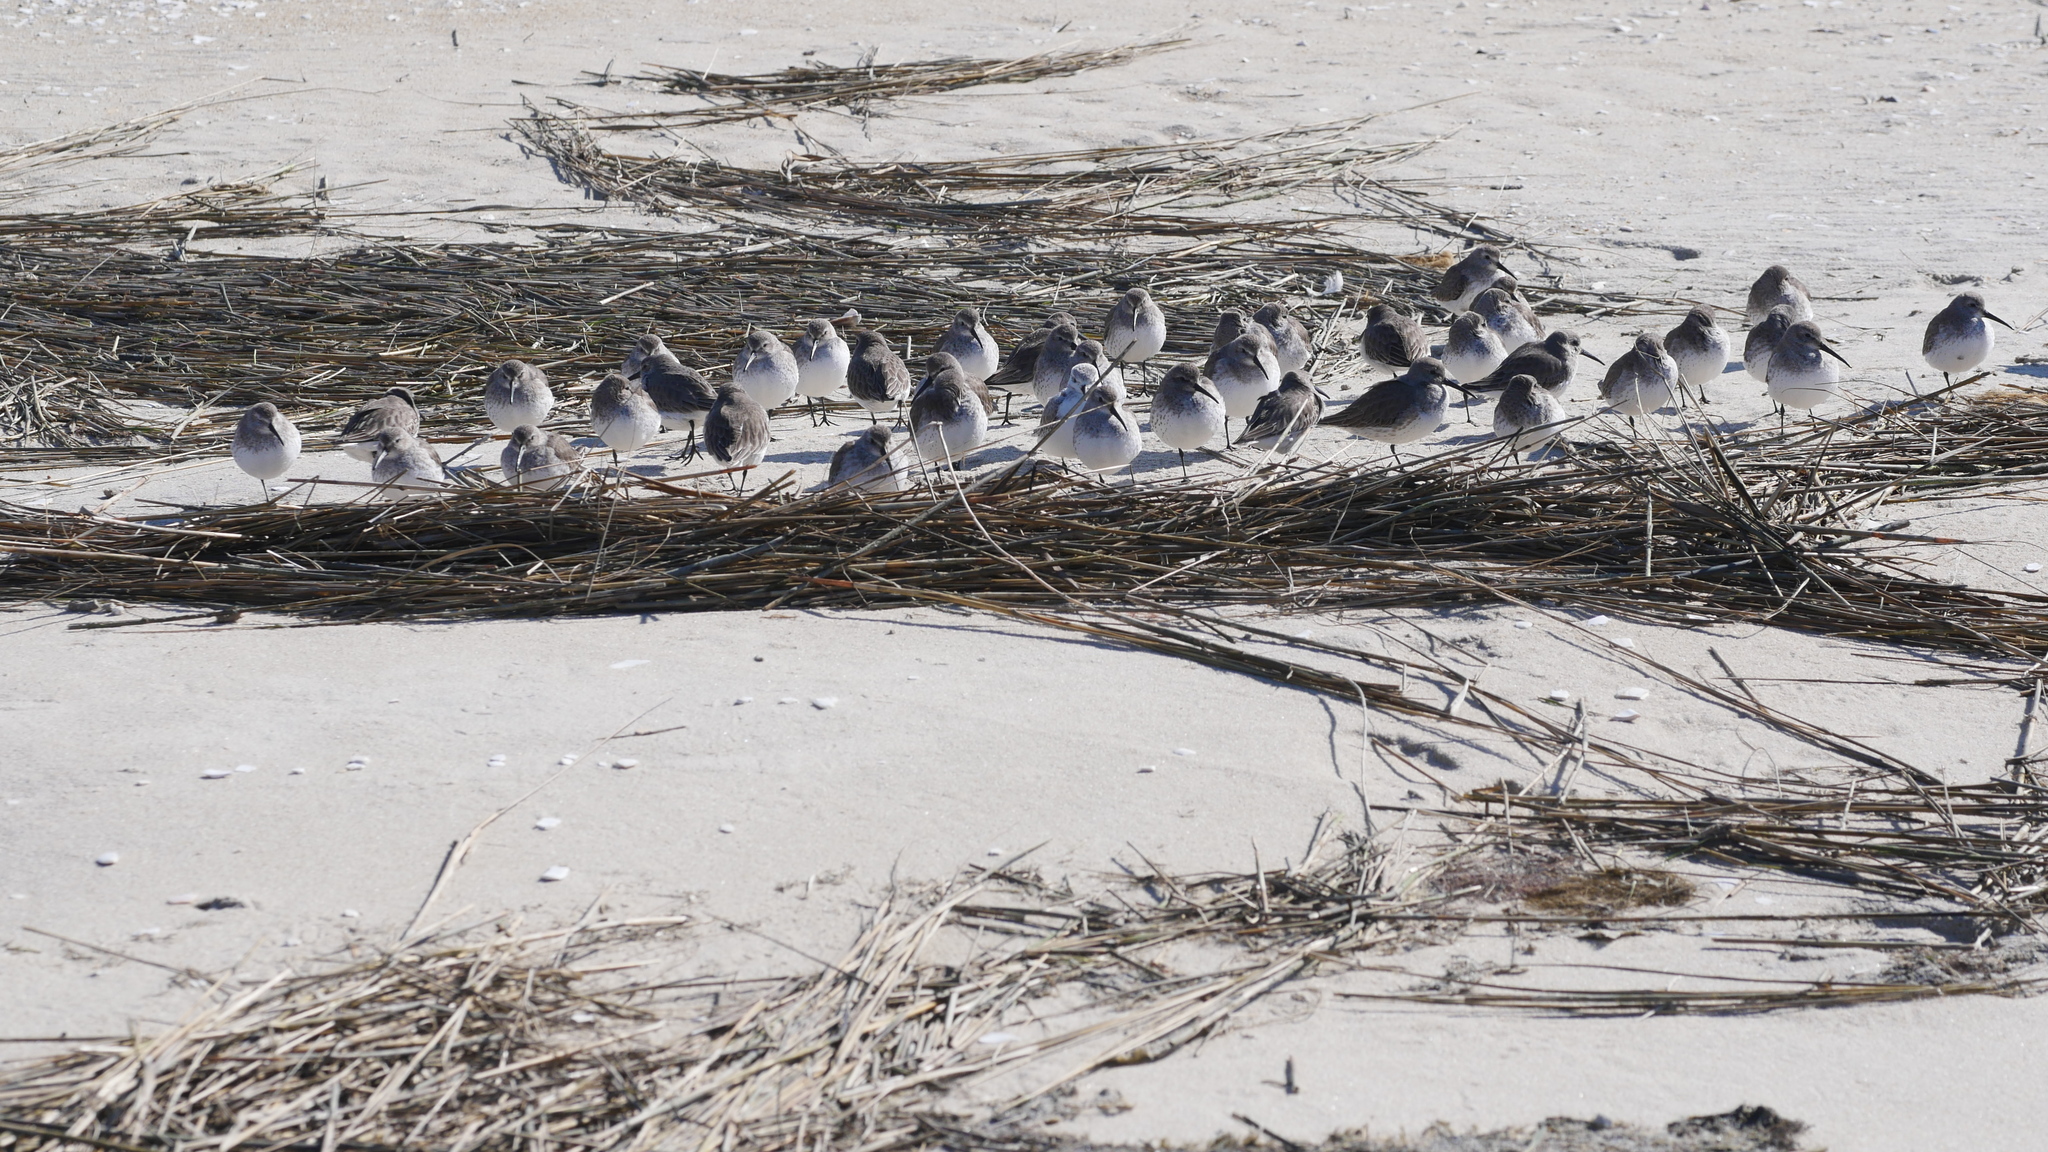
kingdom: Animalia
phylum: Chordata
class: Aves
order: Charadriiformes
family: Scolopacidae
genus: Calidris
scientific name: Calidris alpina
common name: Dunlin
